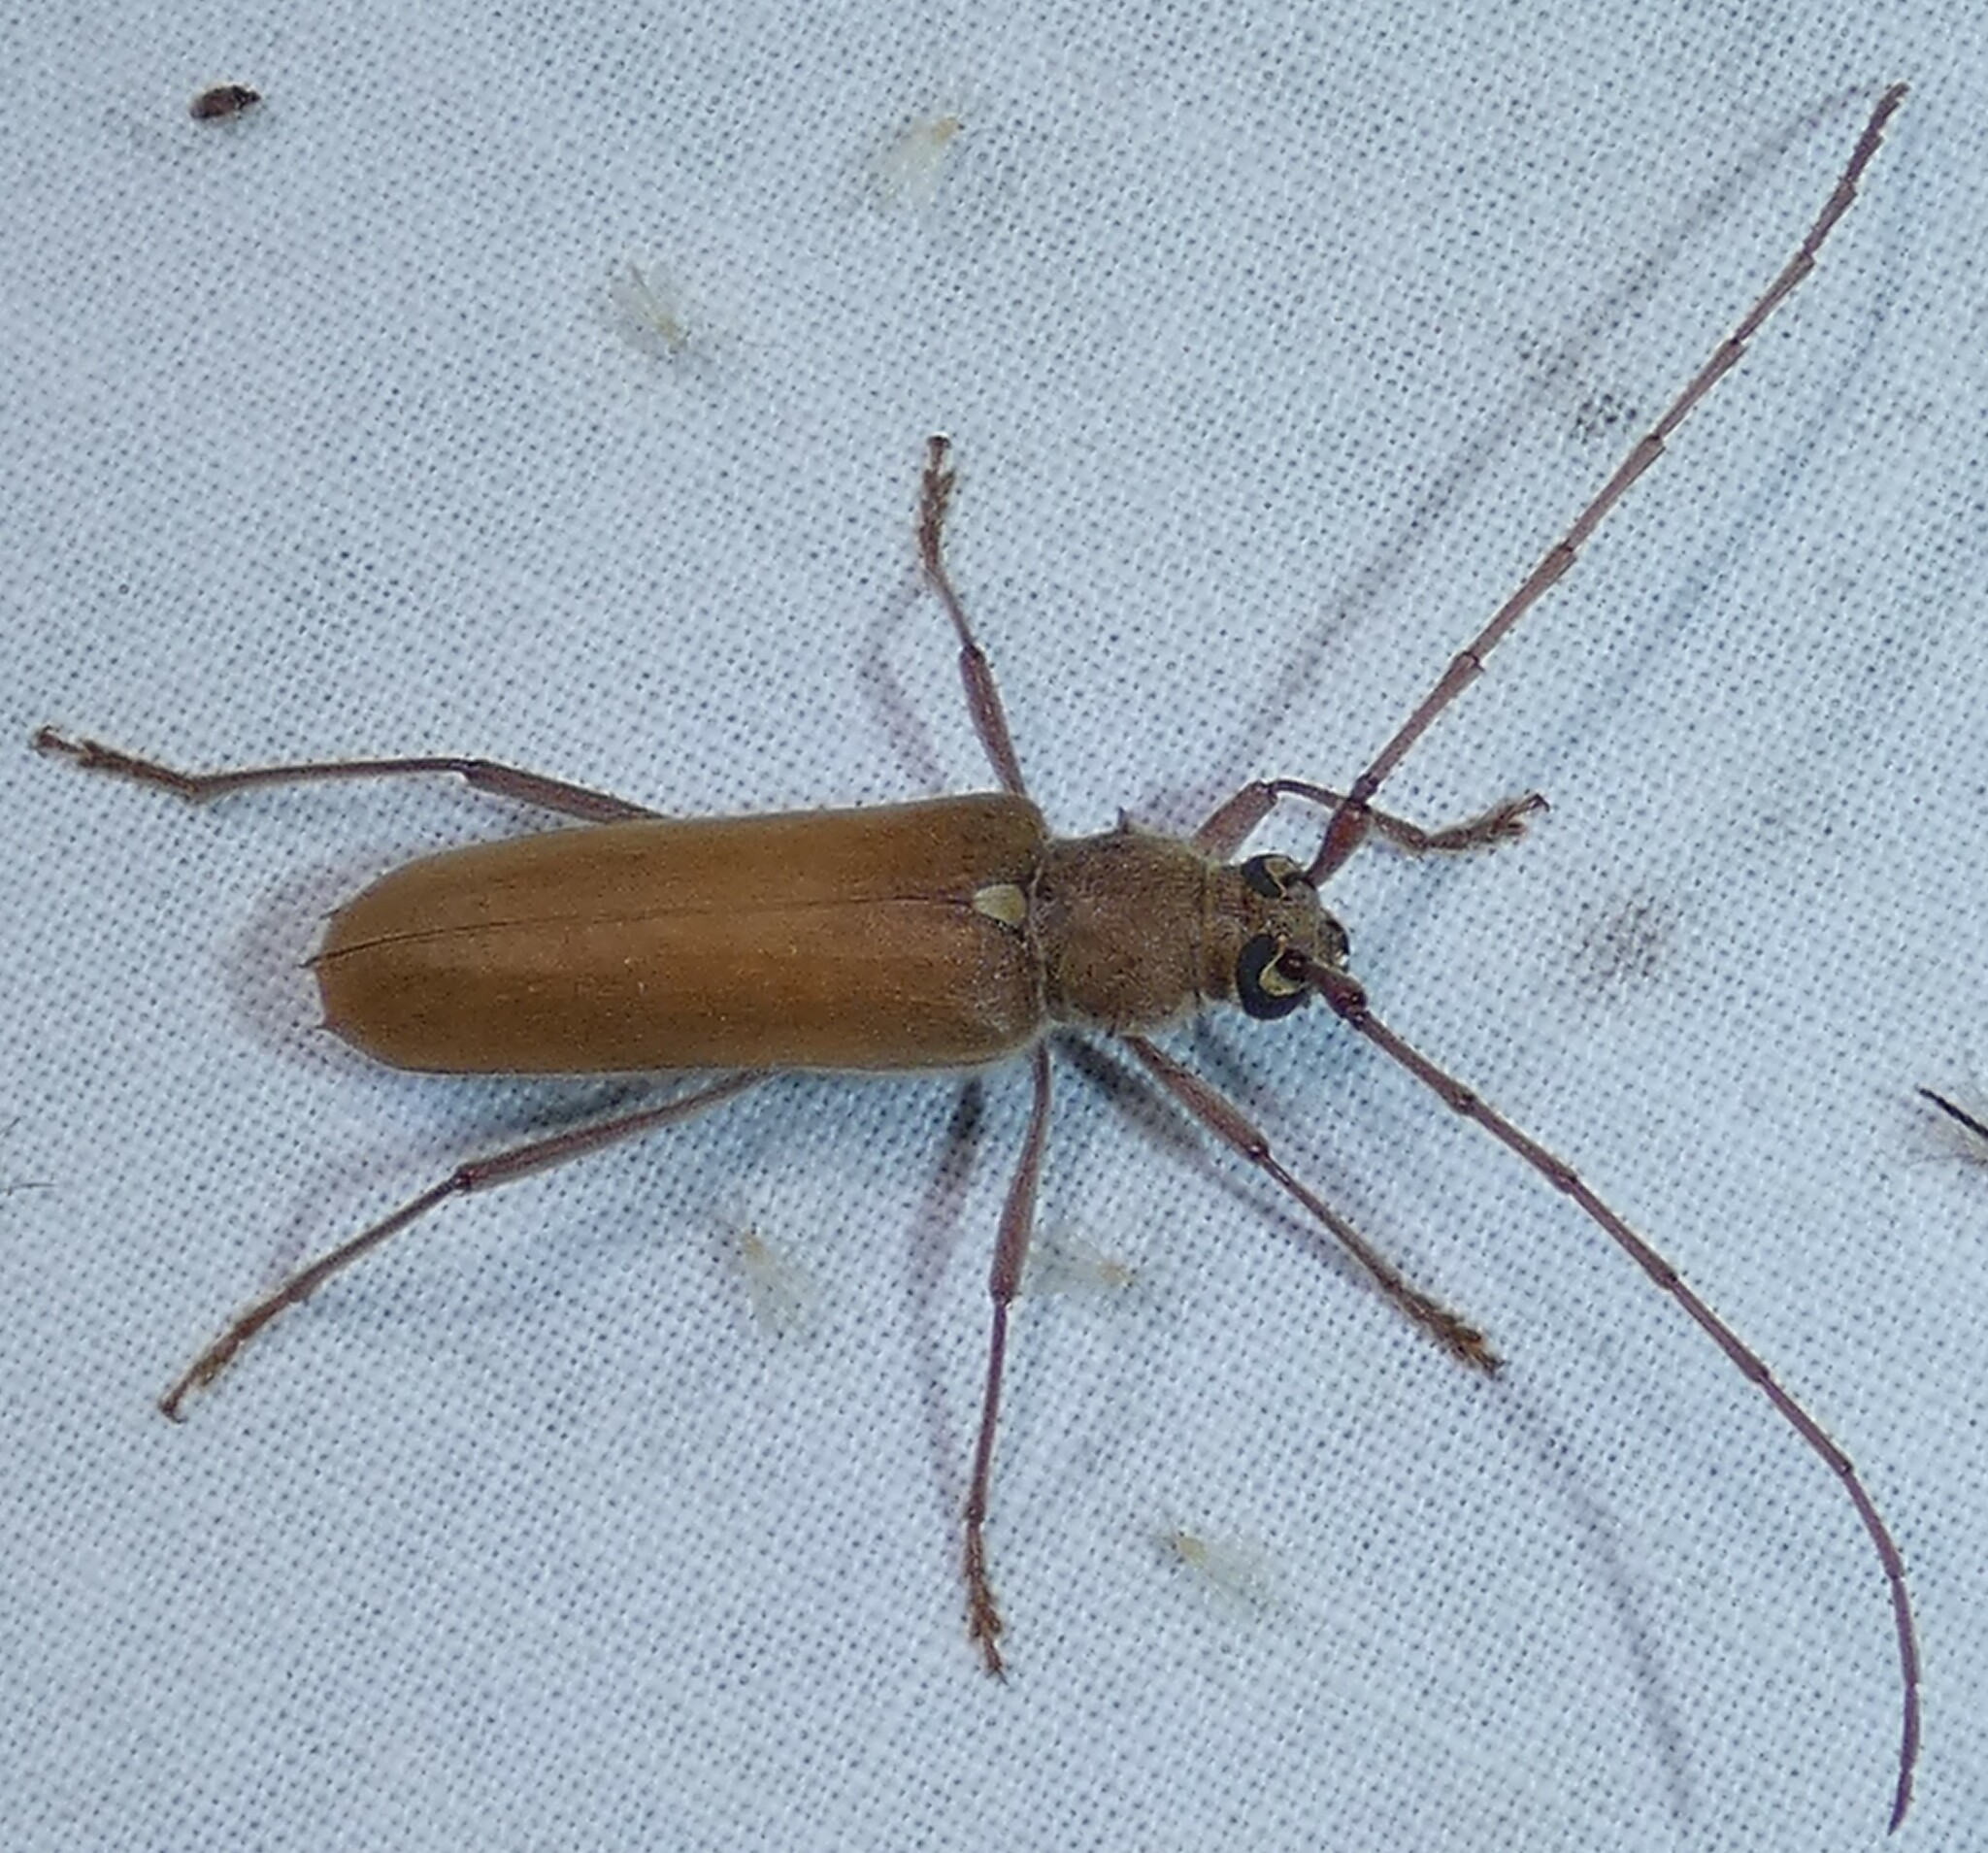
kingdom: Animalia
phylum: Arthropoda
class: Insecta
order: Coleoptera
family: Cerambycidae
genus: Knulliana
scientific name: Knulliana cincta
